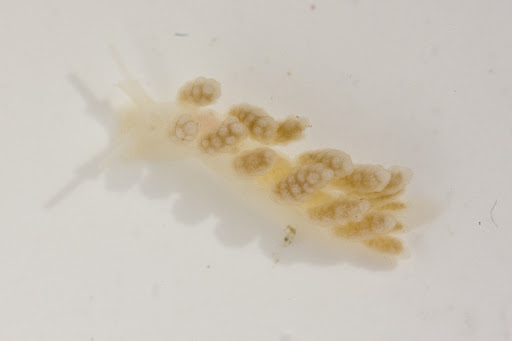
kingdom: Animalia
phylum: Mollusca
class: Gastropoda
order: Nudibranchia
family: Dotidae
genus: Doto
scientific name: Doto amyra
